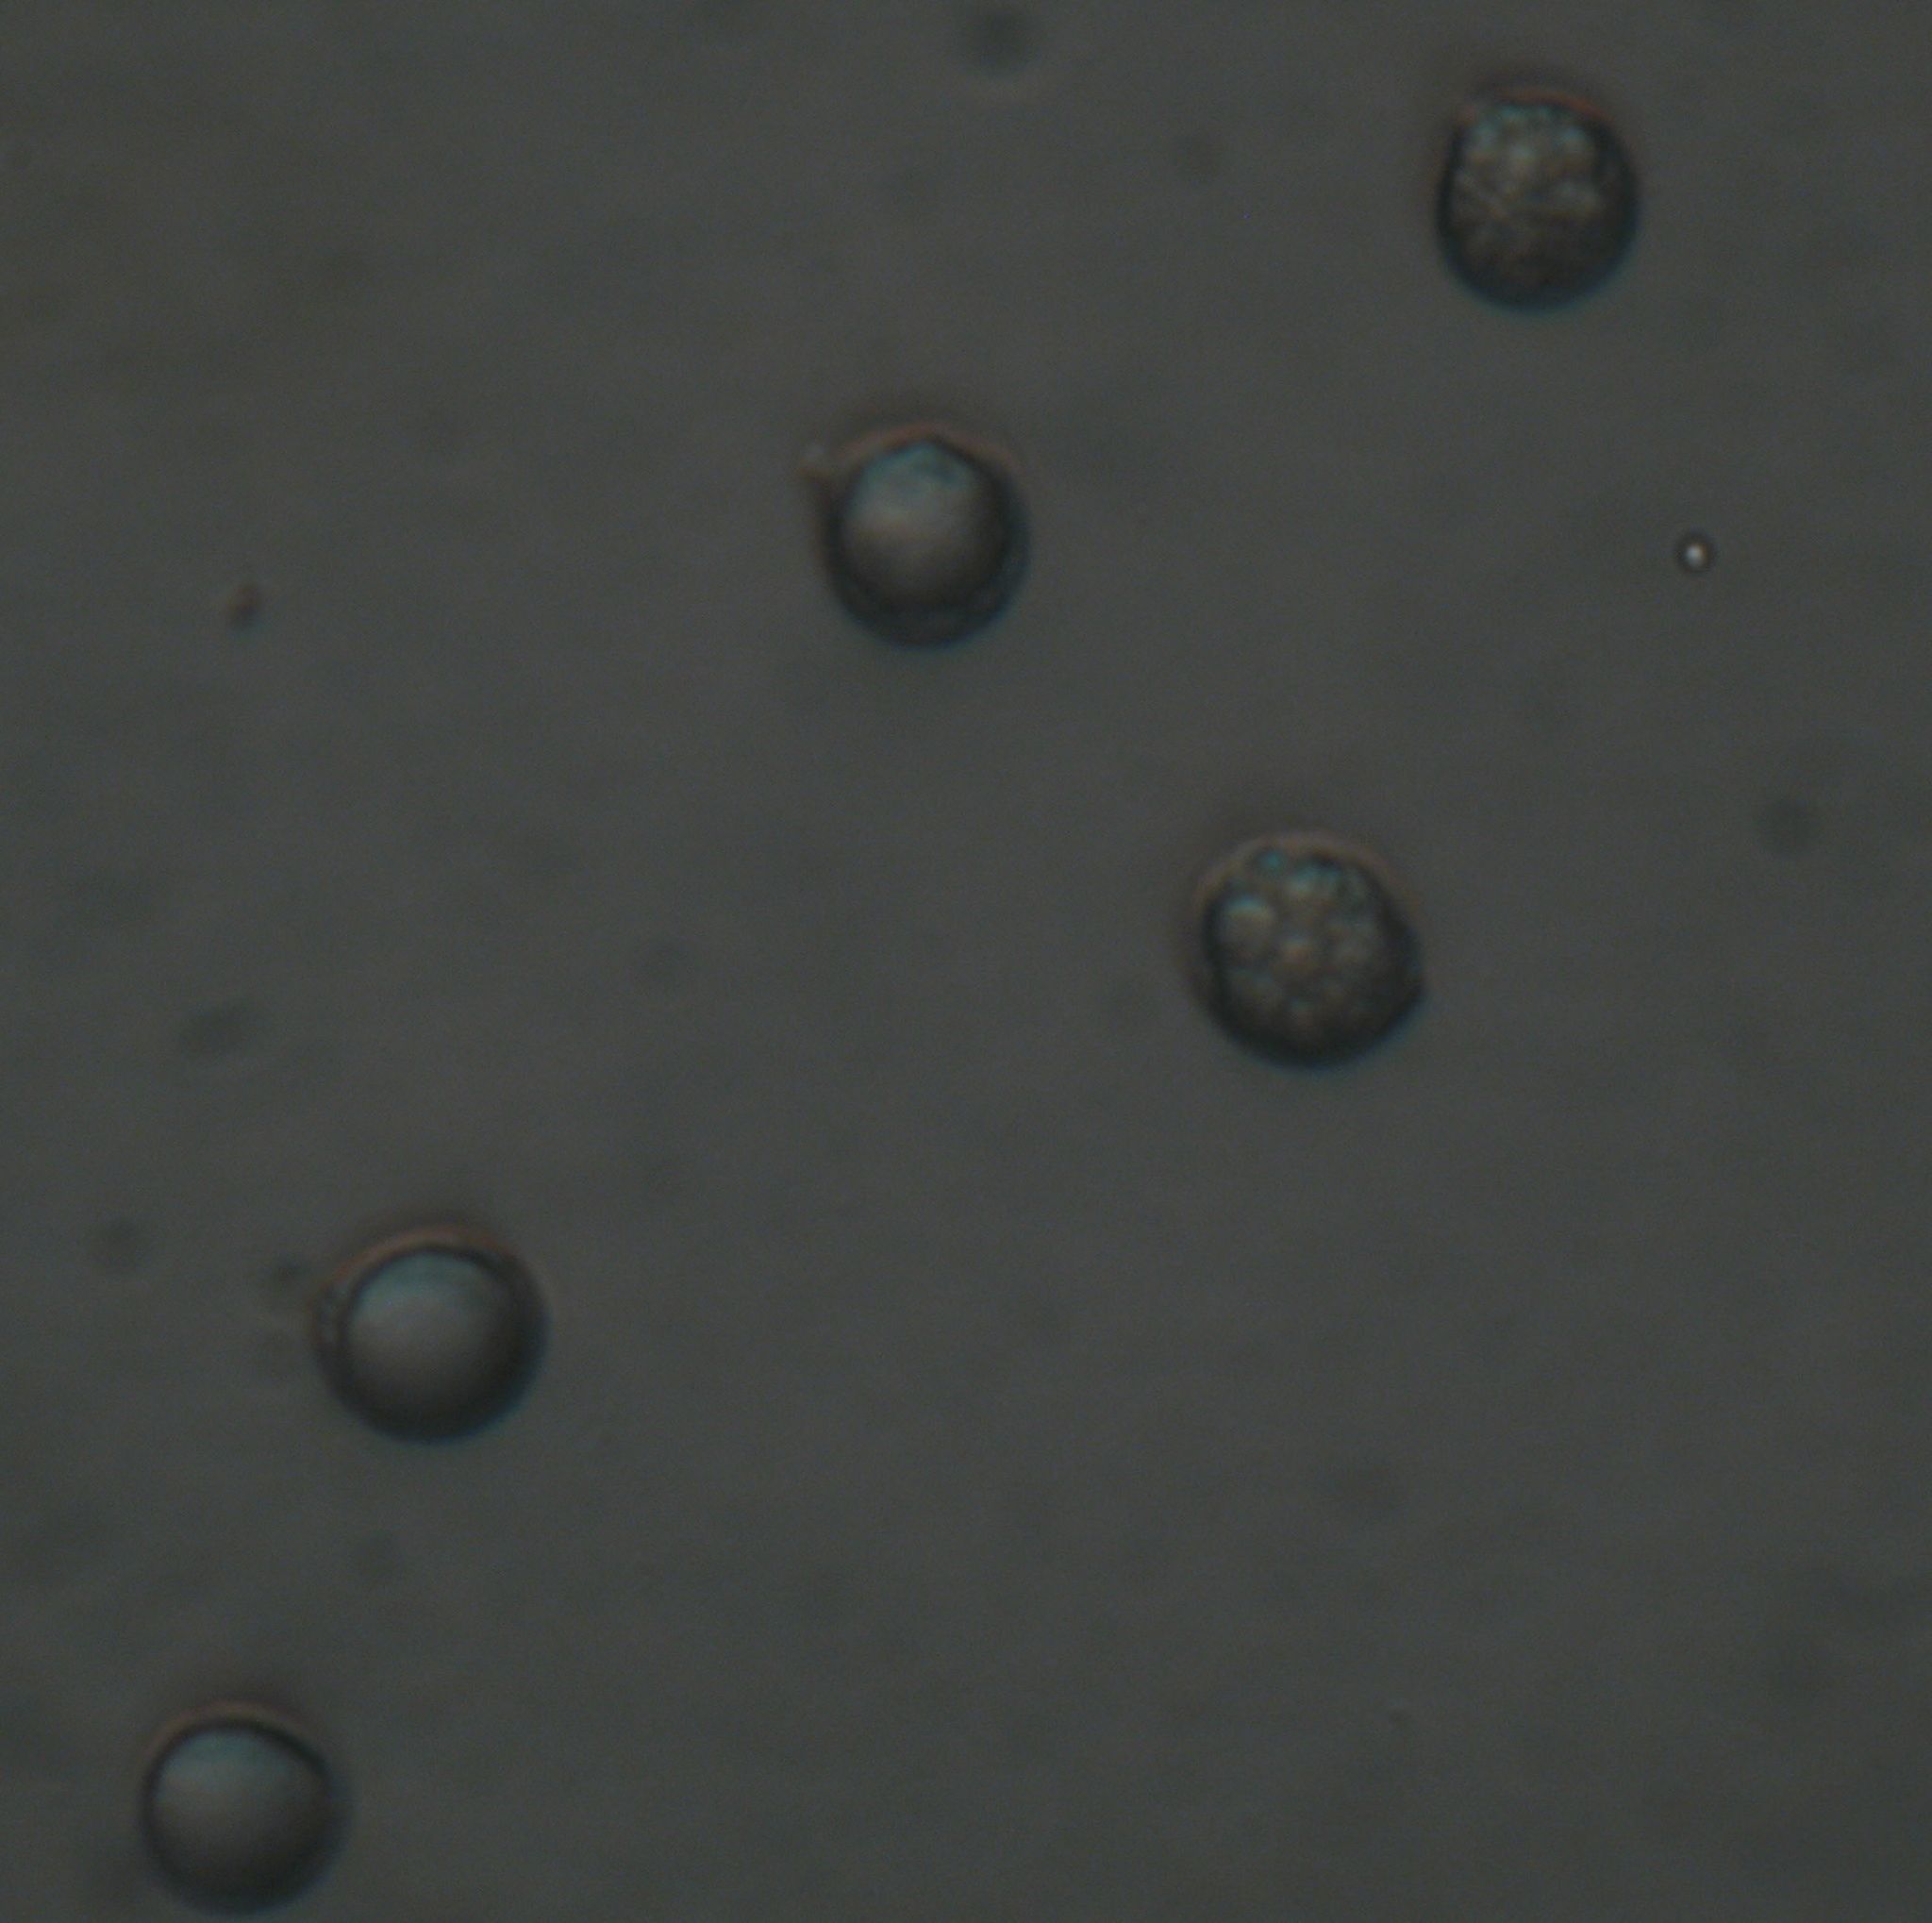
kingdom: Fungi
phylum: Basidiomycota
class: Agaricomycetes
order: Agaricales
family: Amanitaceae
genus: Amanita
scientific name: Amanita pekeoides
